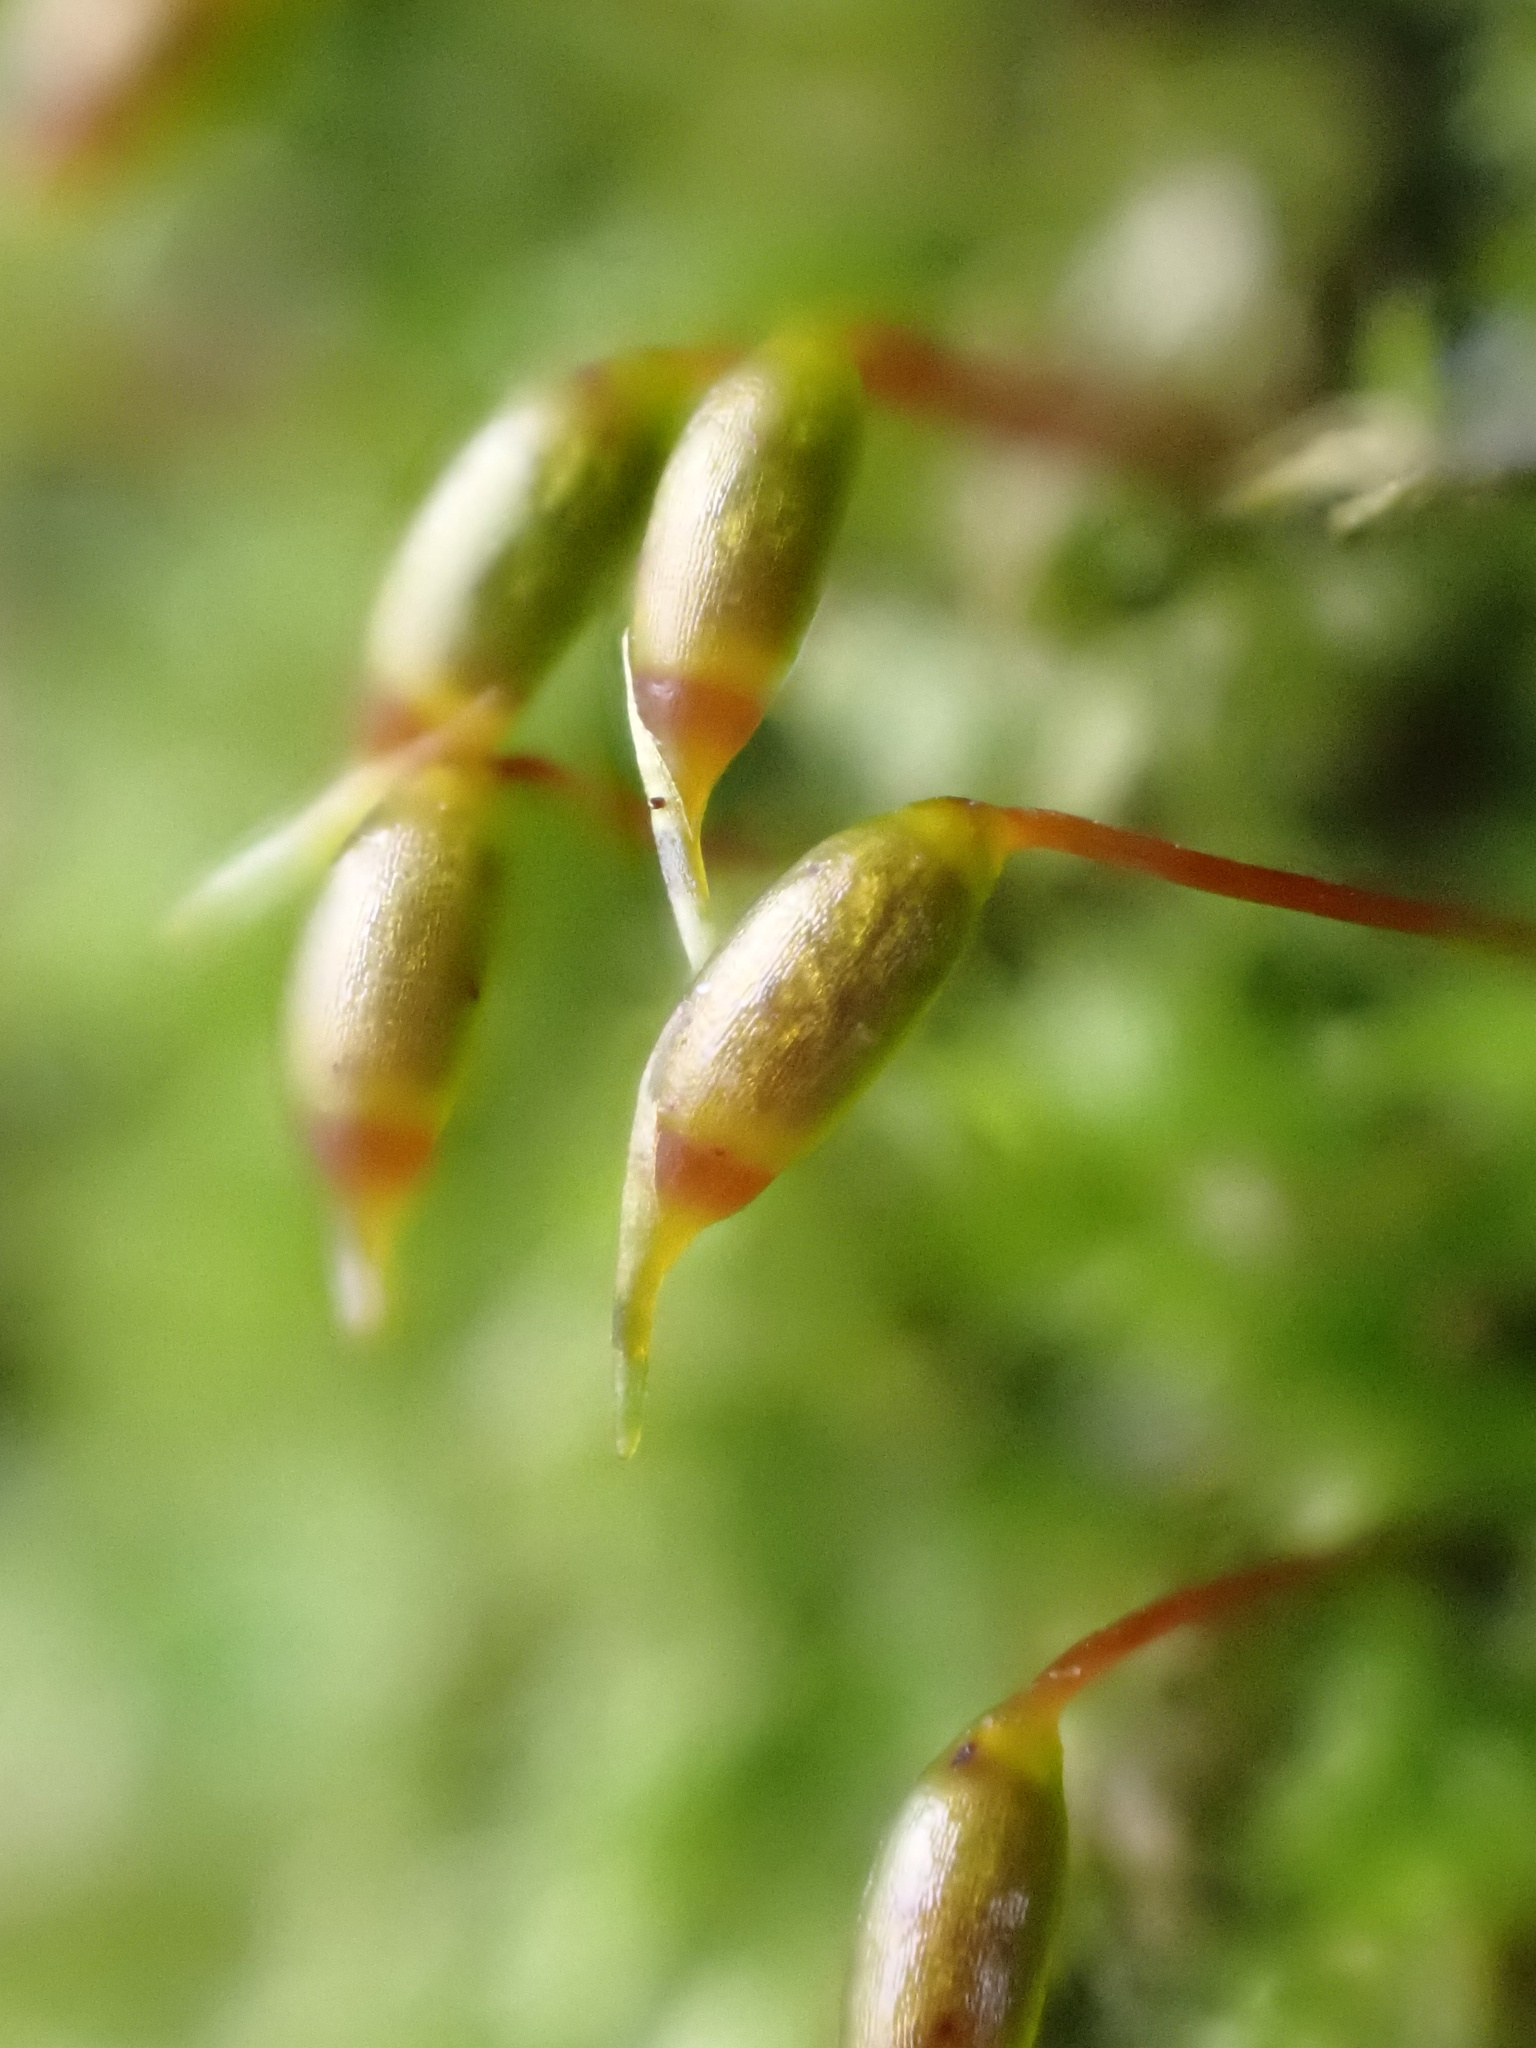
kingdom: Plantae
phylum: Bryophyta
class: Bryopsida
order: Hypnales
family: Brachytheciaceae
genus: Rhynchostegium
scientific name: Rhynchostegium confertum
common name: Clustered feather-moss
